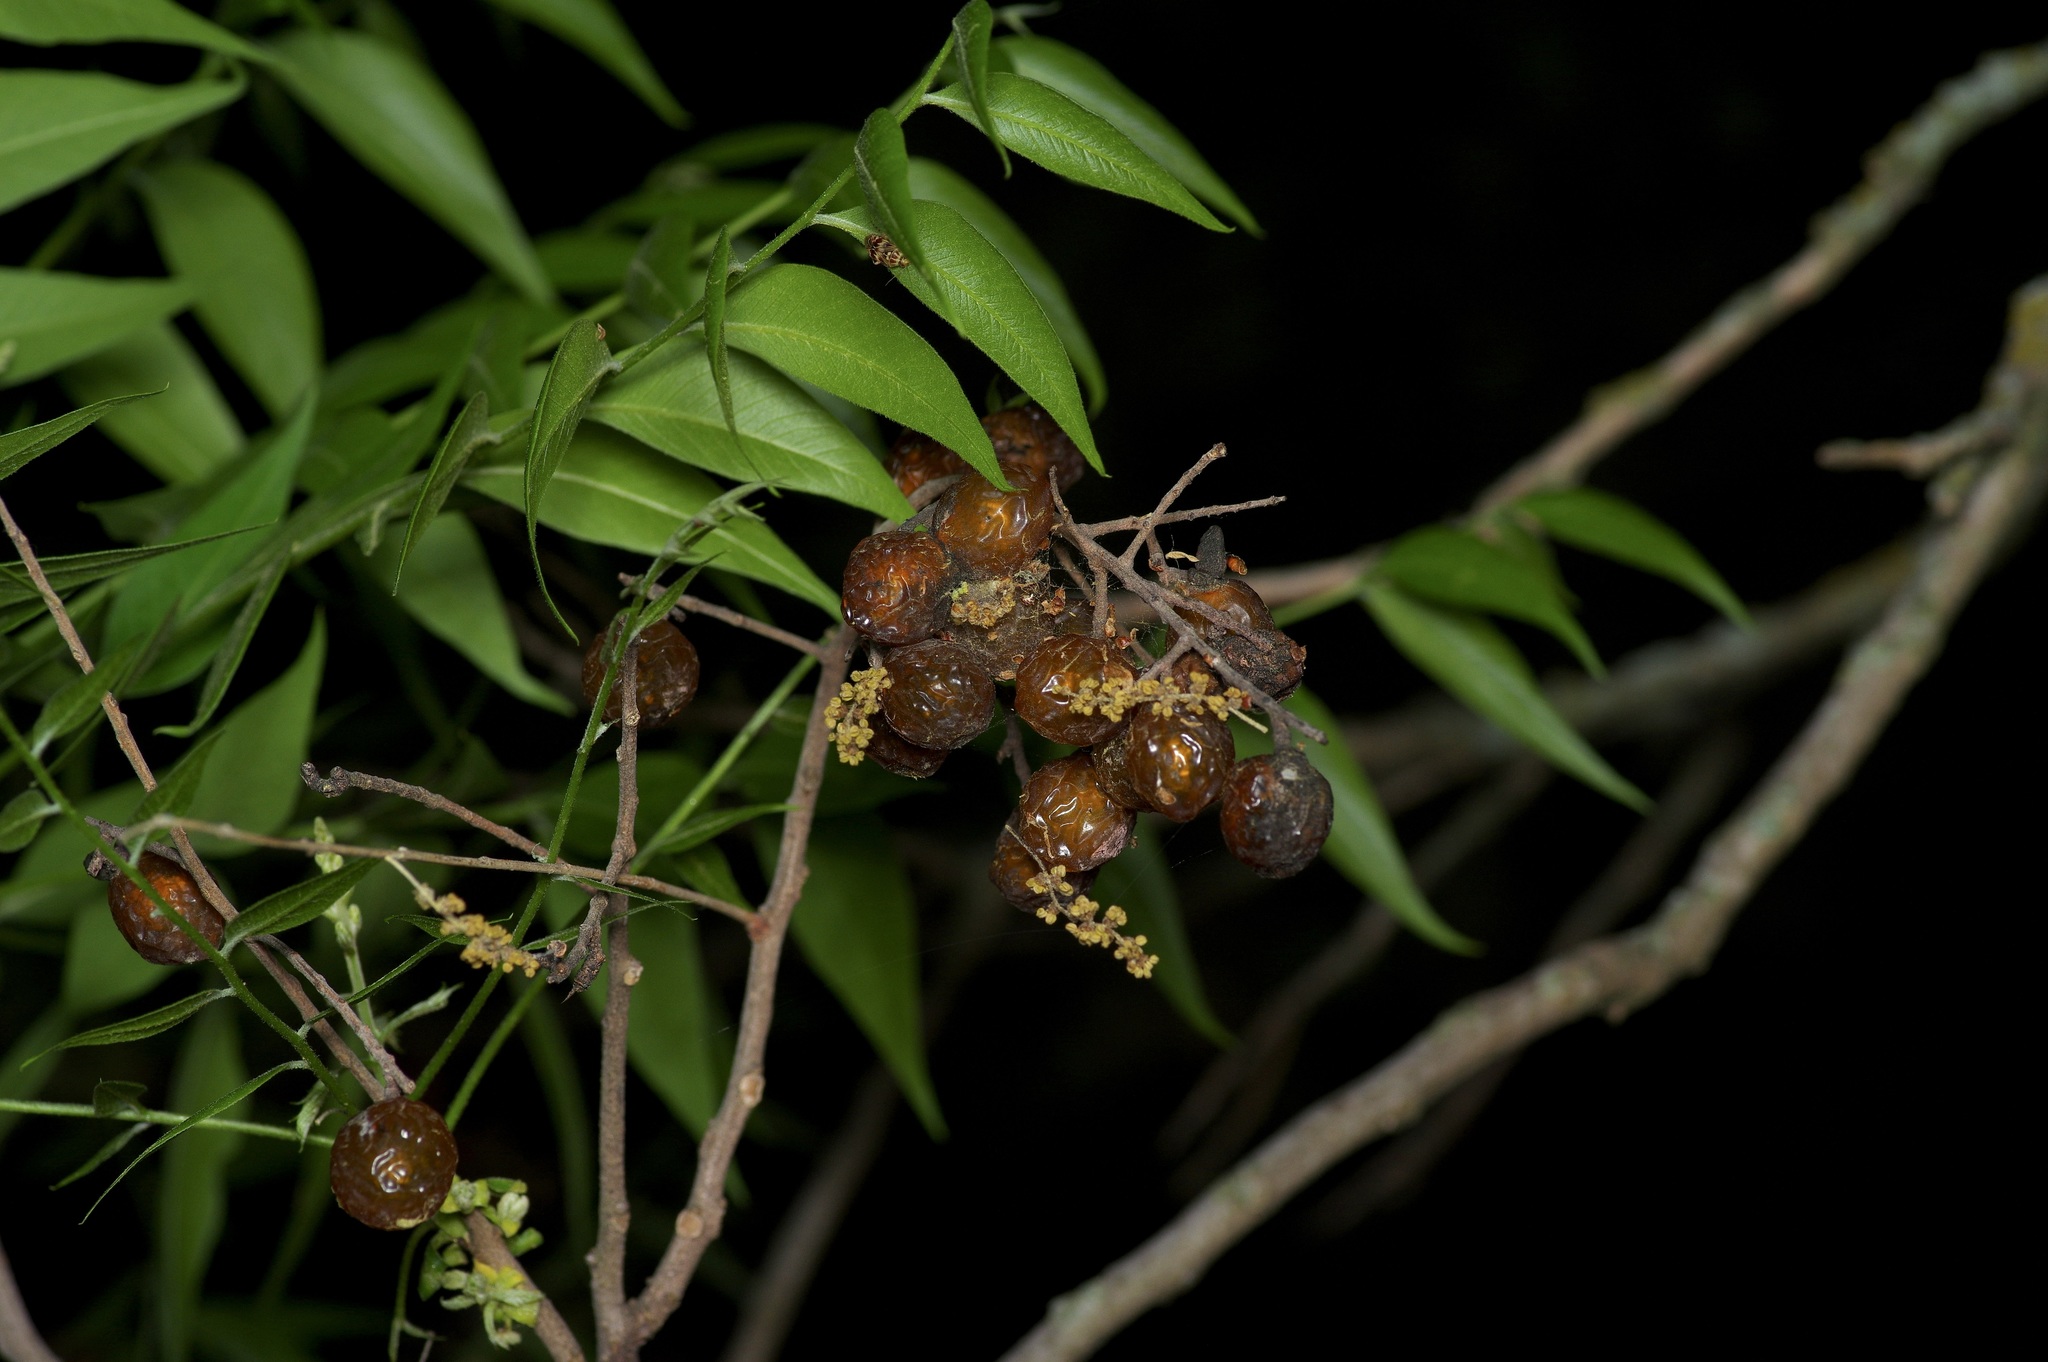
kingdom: Plantae
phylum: Tracheophyta
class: Magnoliopsida
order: Sapindales
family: Sapindaceae
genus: Sapindus
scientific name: Sapindus drummondii
